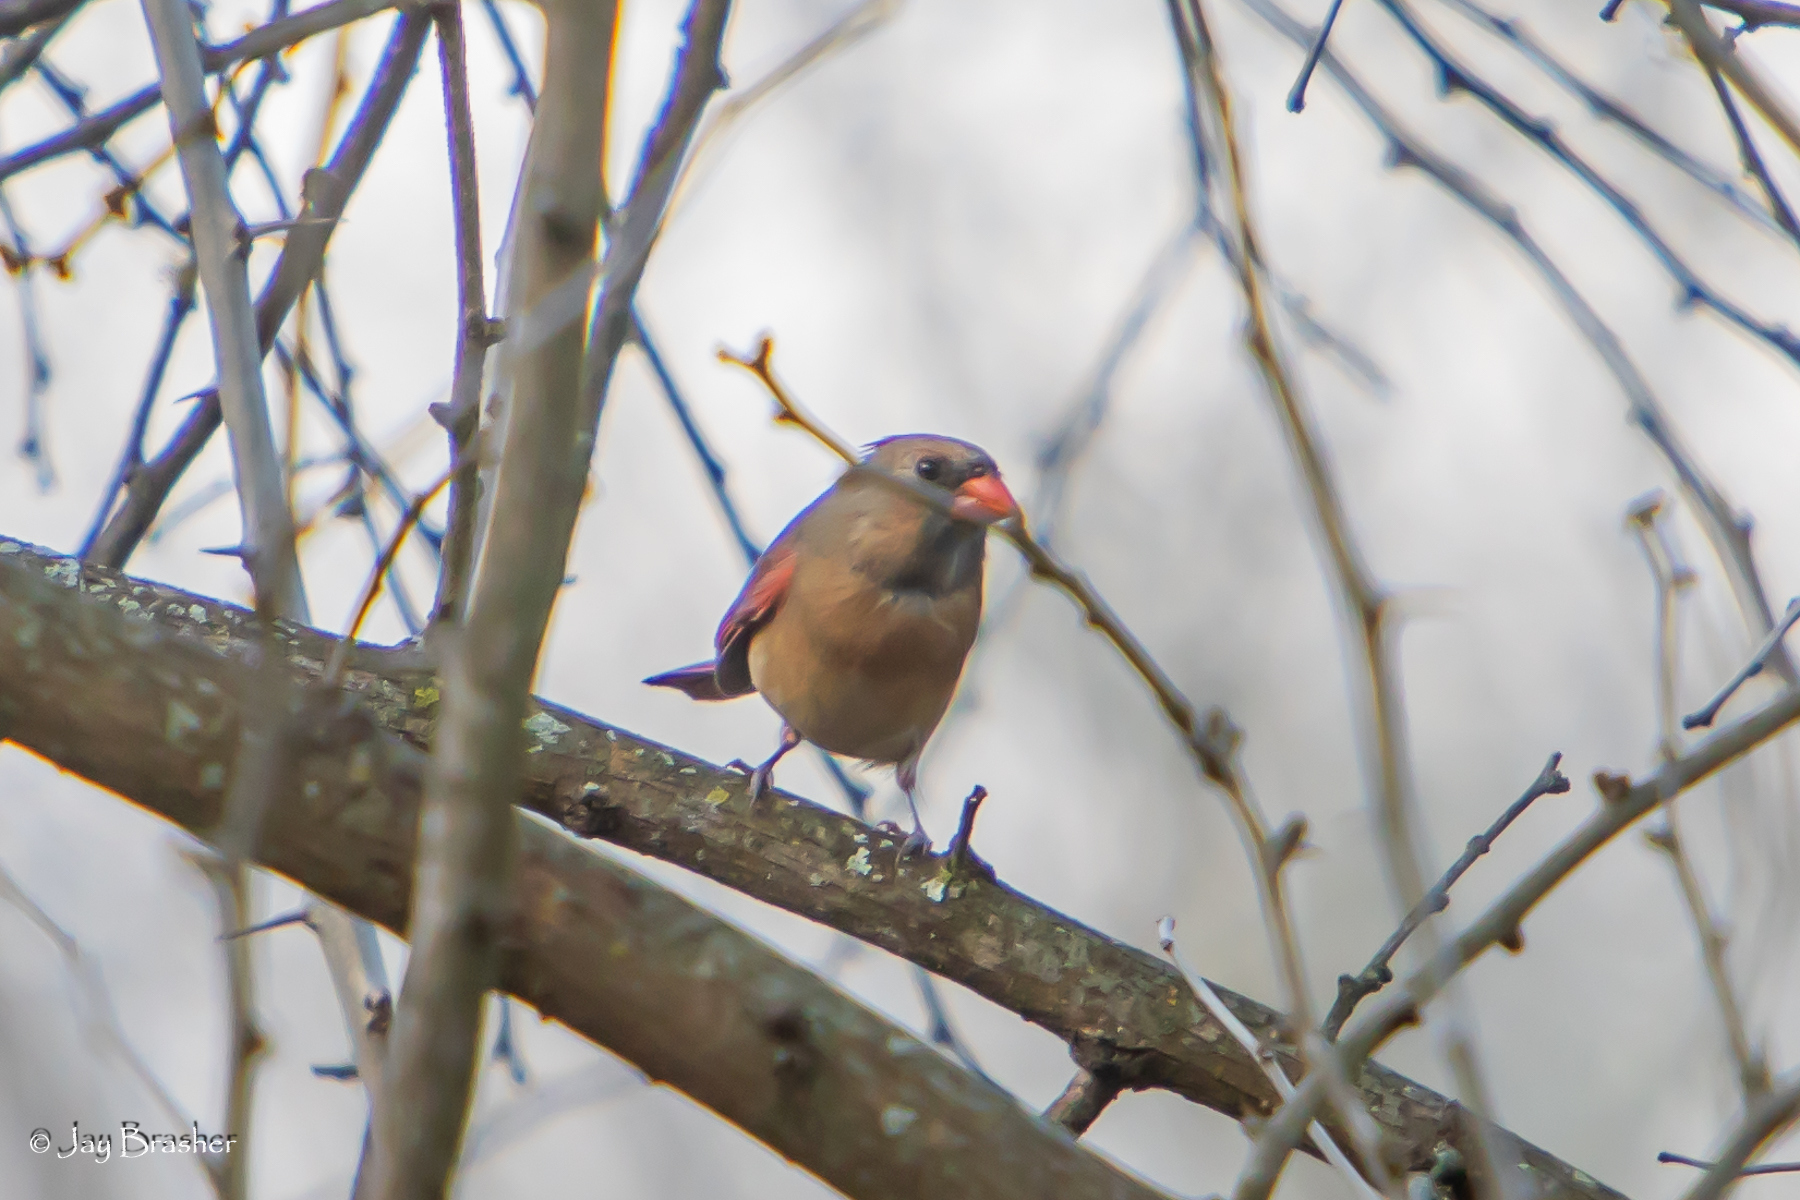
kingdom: Animalia
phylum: Chordata
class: Aves
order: Passeriformes
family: Cardinalidae
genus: Cardinalis
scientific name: Cardinalis cardinalis
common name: Northern cardinal
